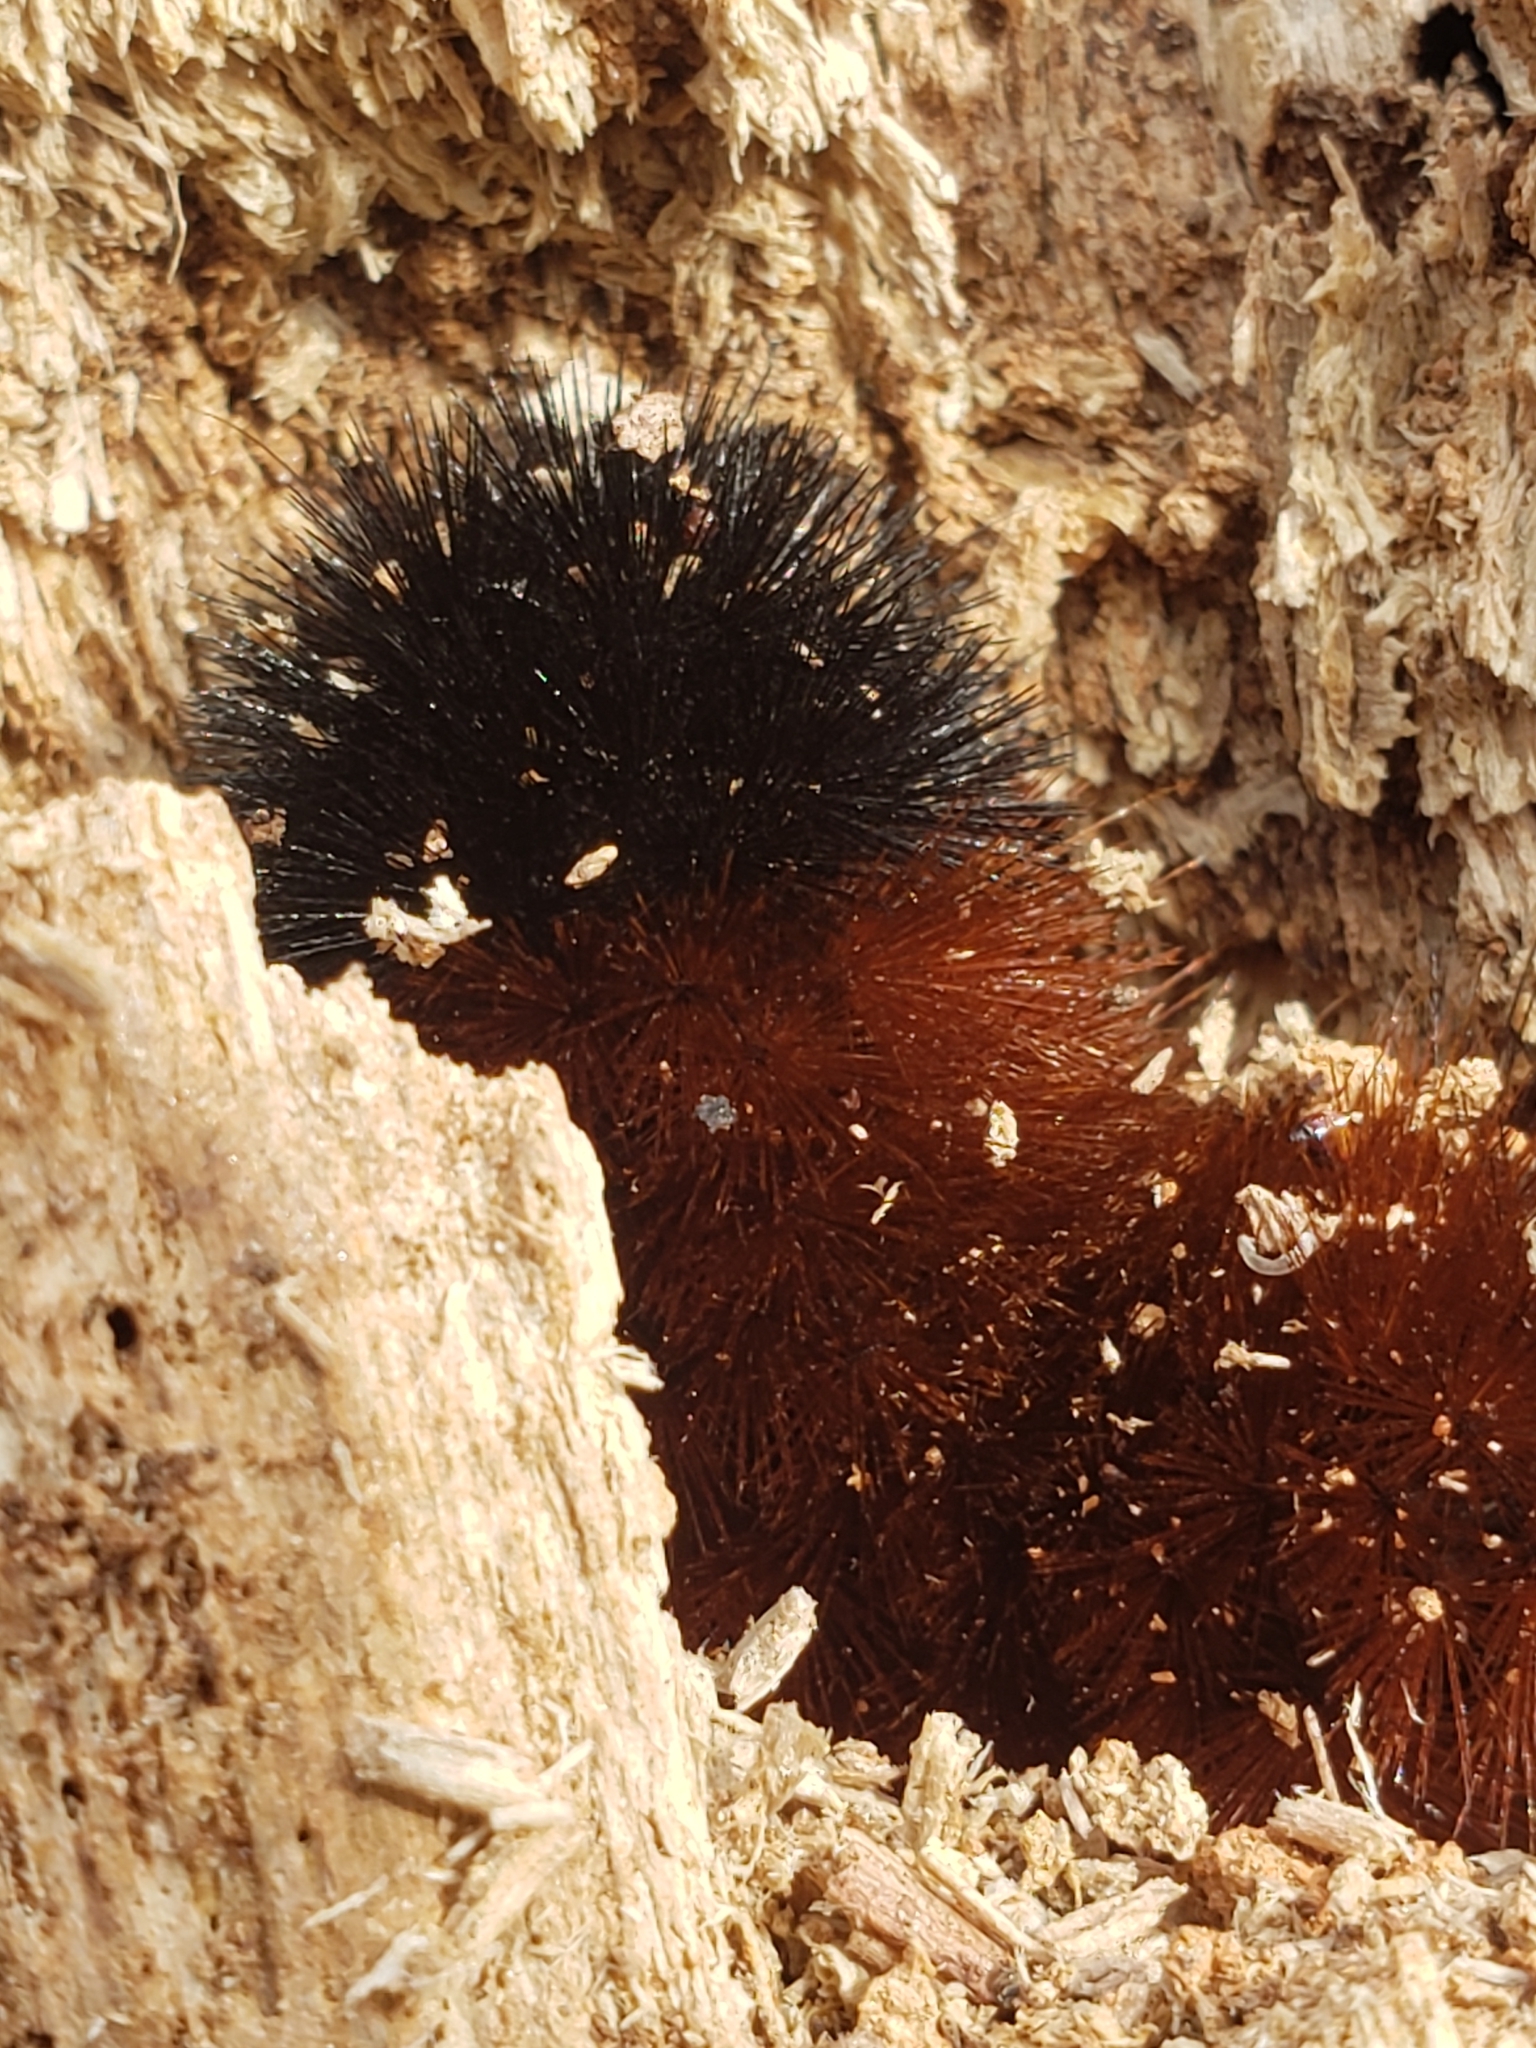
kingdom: Animalia
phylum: Arthropoda
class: Insecta
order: Lepidoptera
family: Erebidae
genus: Pyrrharctia
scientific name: Pyrrharctia isabella
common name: Isabella tiger moth
